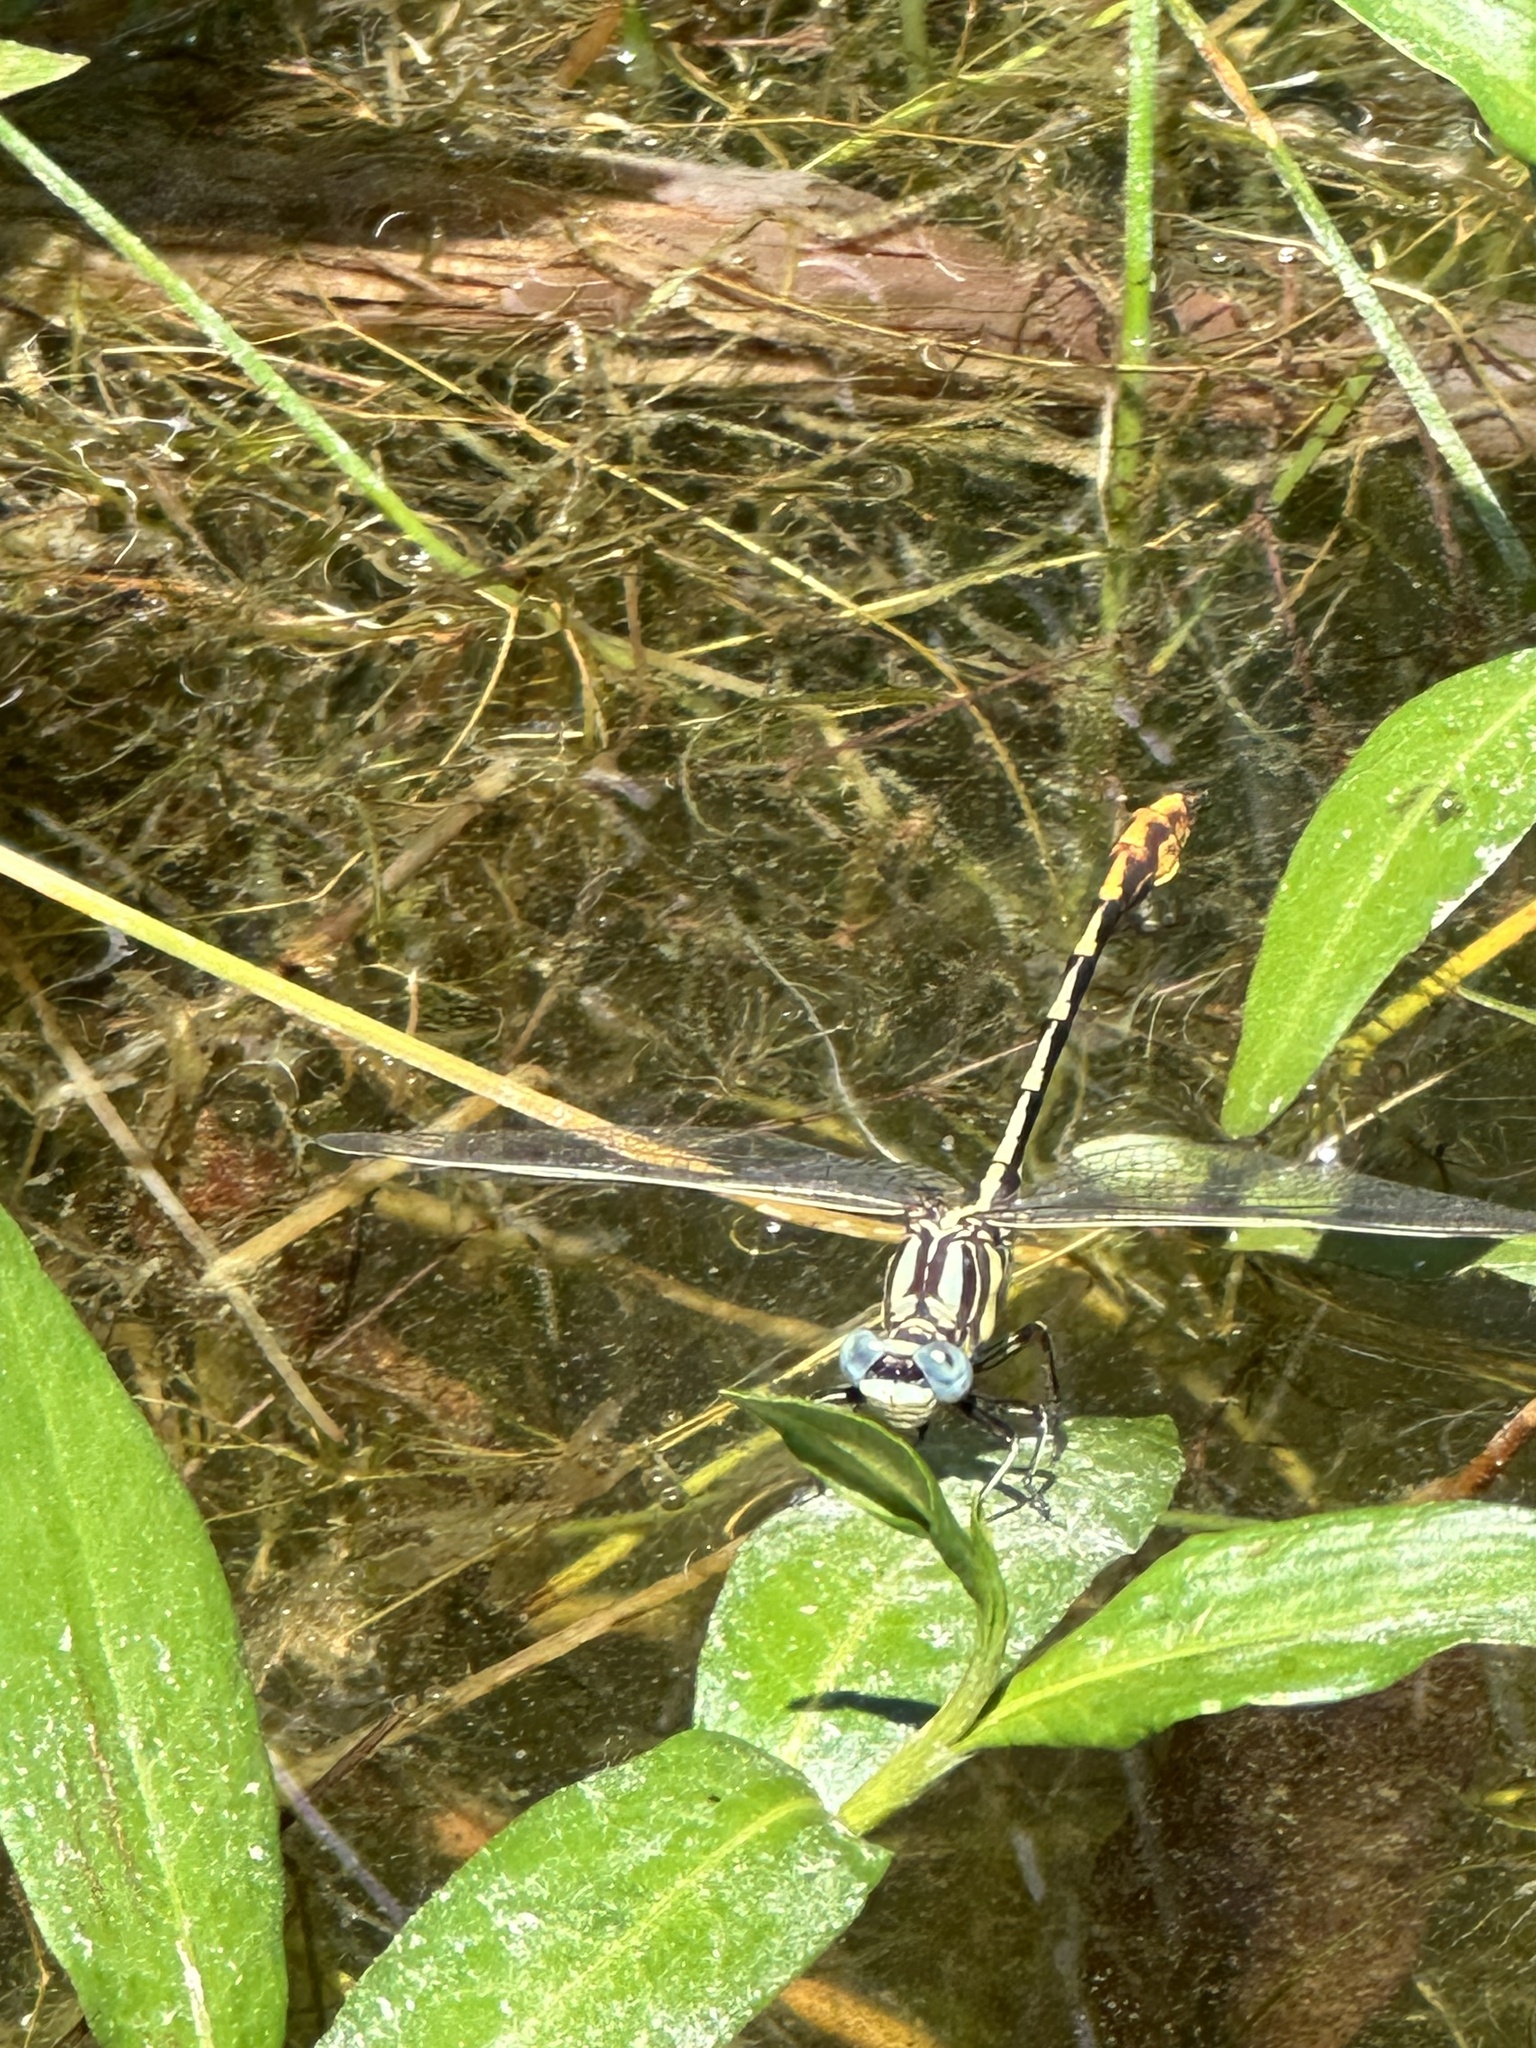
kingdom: Animalia
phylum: Arthropoda
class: Insecta
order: Odonata
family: Gomphidae
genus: Phanogomphus
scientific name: Phanogomphus militaris
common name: Sulphur-tipped clubtail
